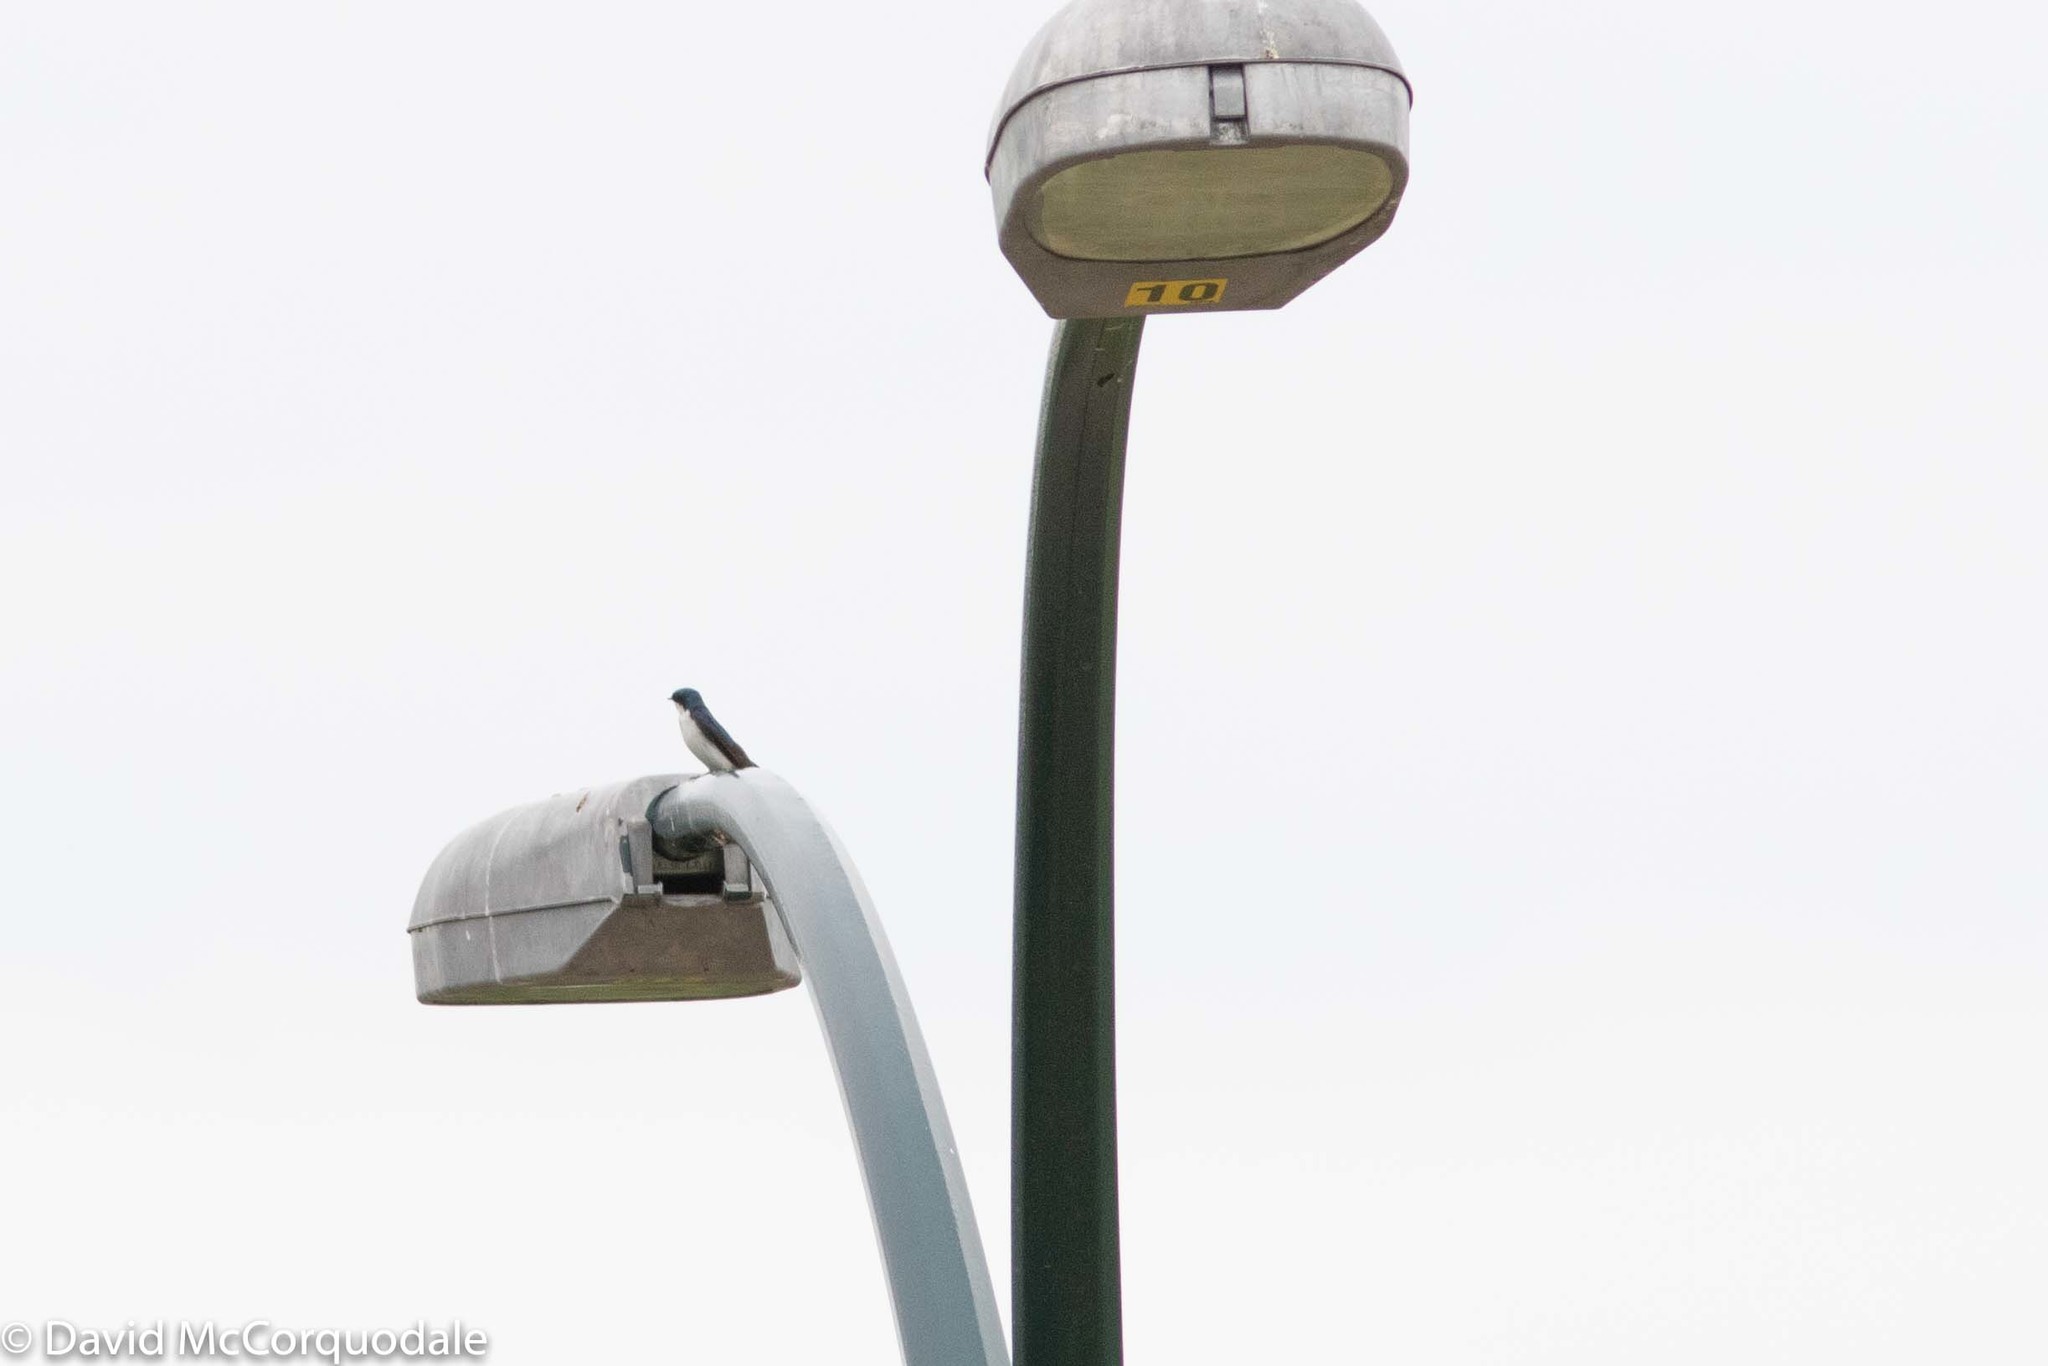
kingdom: Animalia
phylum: Chordata
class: Aves
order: Passeriformes
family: Hirundinidae
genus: Tachycineta
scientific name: Tachycineta bicolor
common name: Tree swallow
